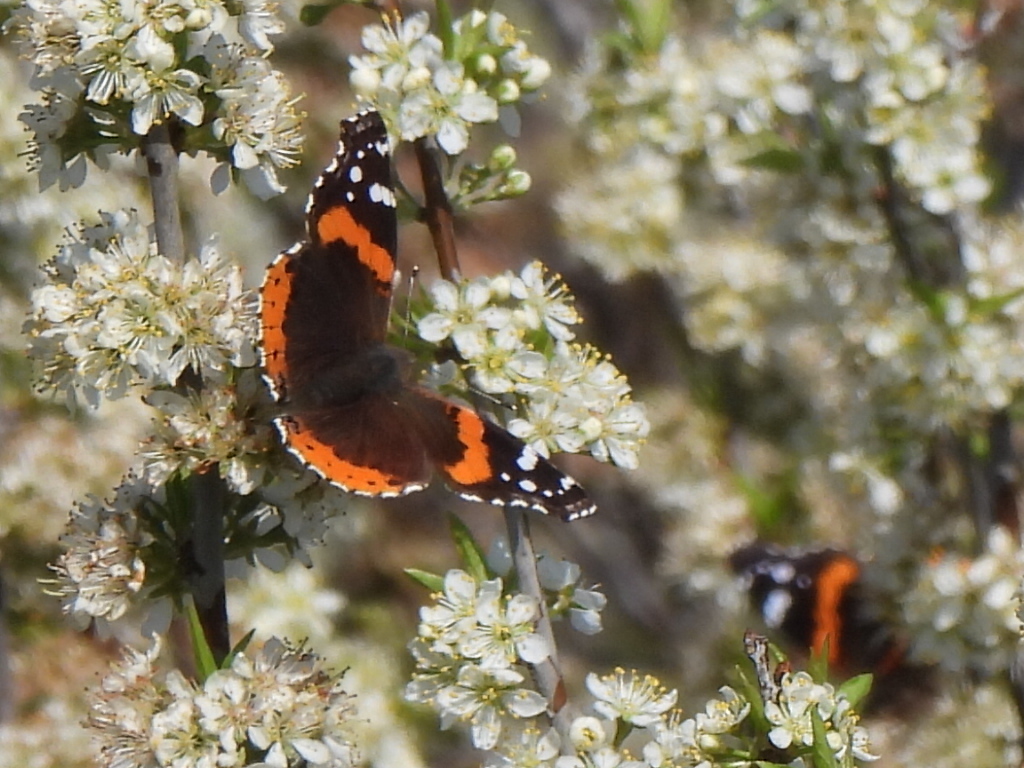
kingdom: Animalia
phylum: Arthropoda
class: Insecta
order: Lepidoptera
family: Nymphalidae
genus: Vanessa
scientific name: Vanessa atalanta
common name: Red admiral
